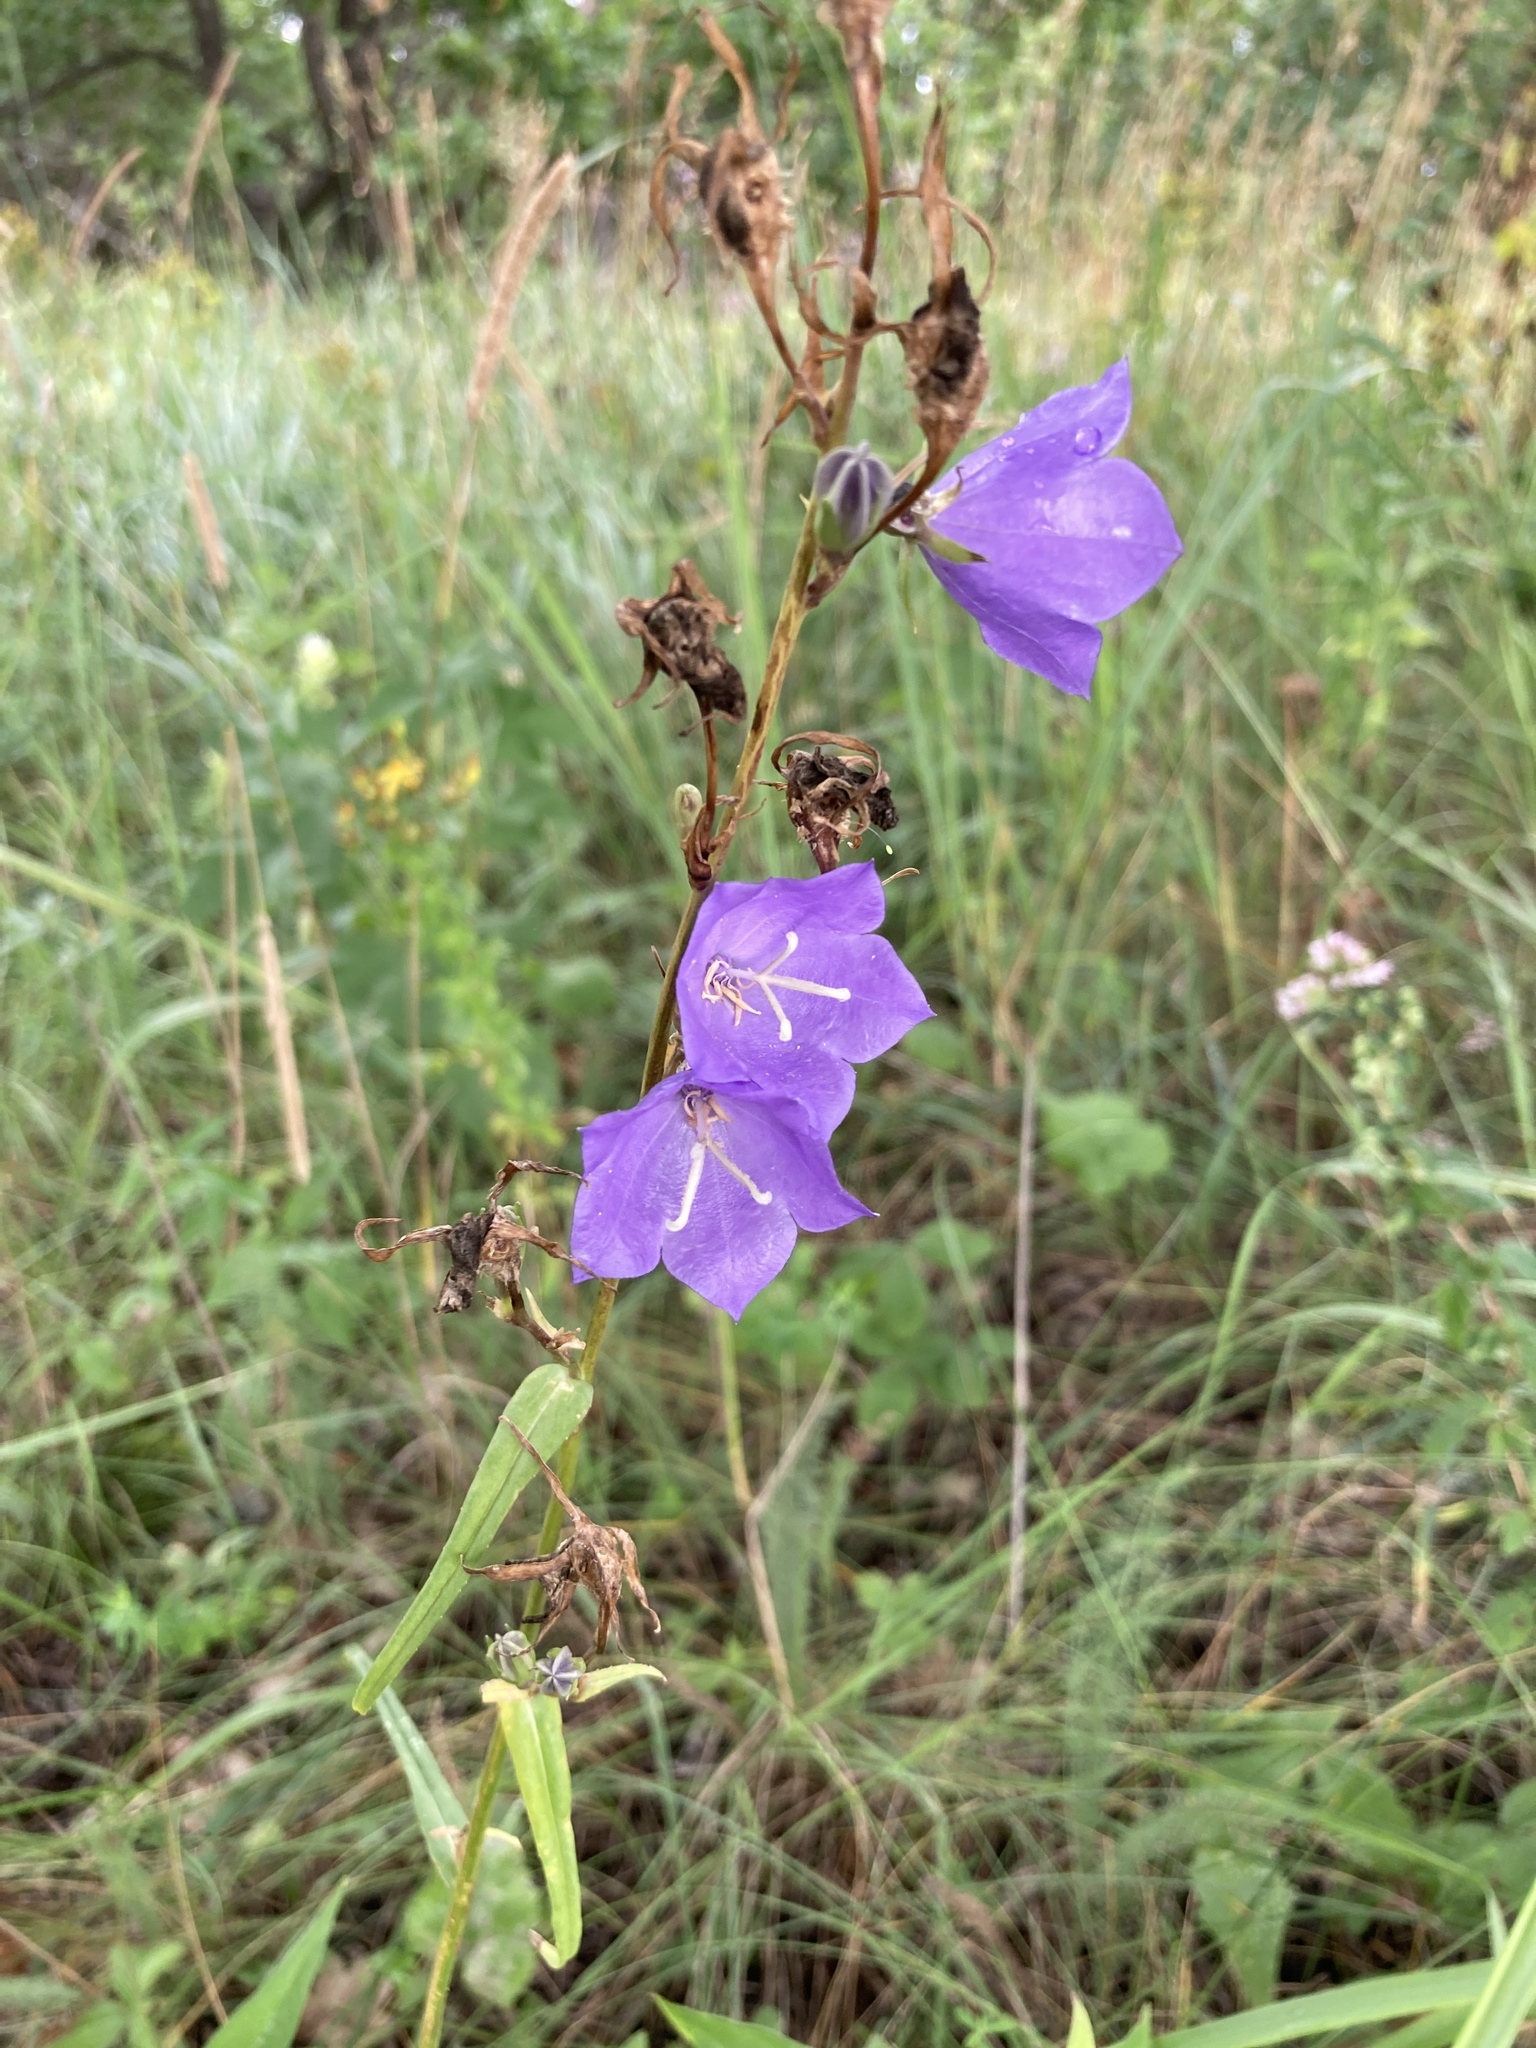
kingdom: Plantae
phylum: Tracheophyta
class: Magnoliopsida
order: Asterales
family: Campanulaceae
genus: Campanula
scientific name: Campanula persicifolia
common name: Peach-leaved bellflower
